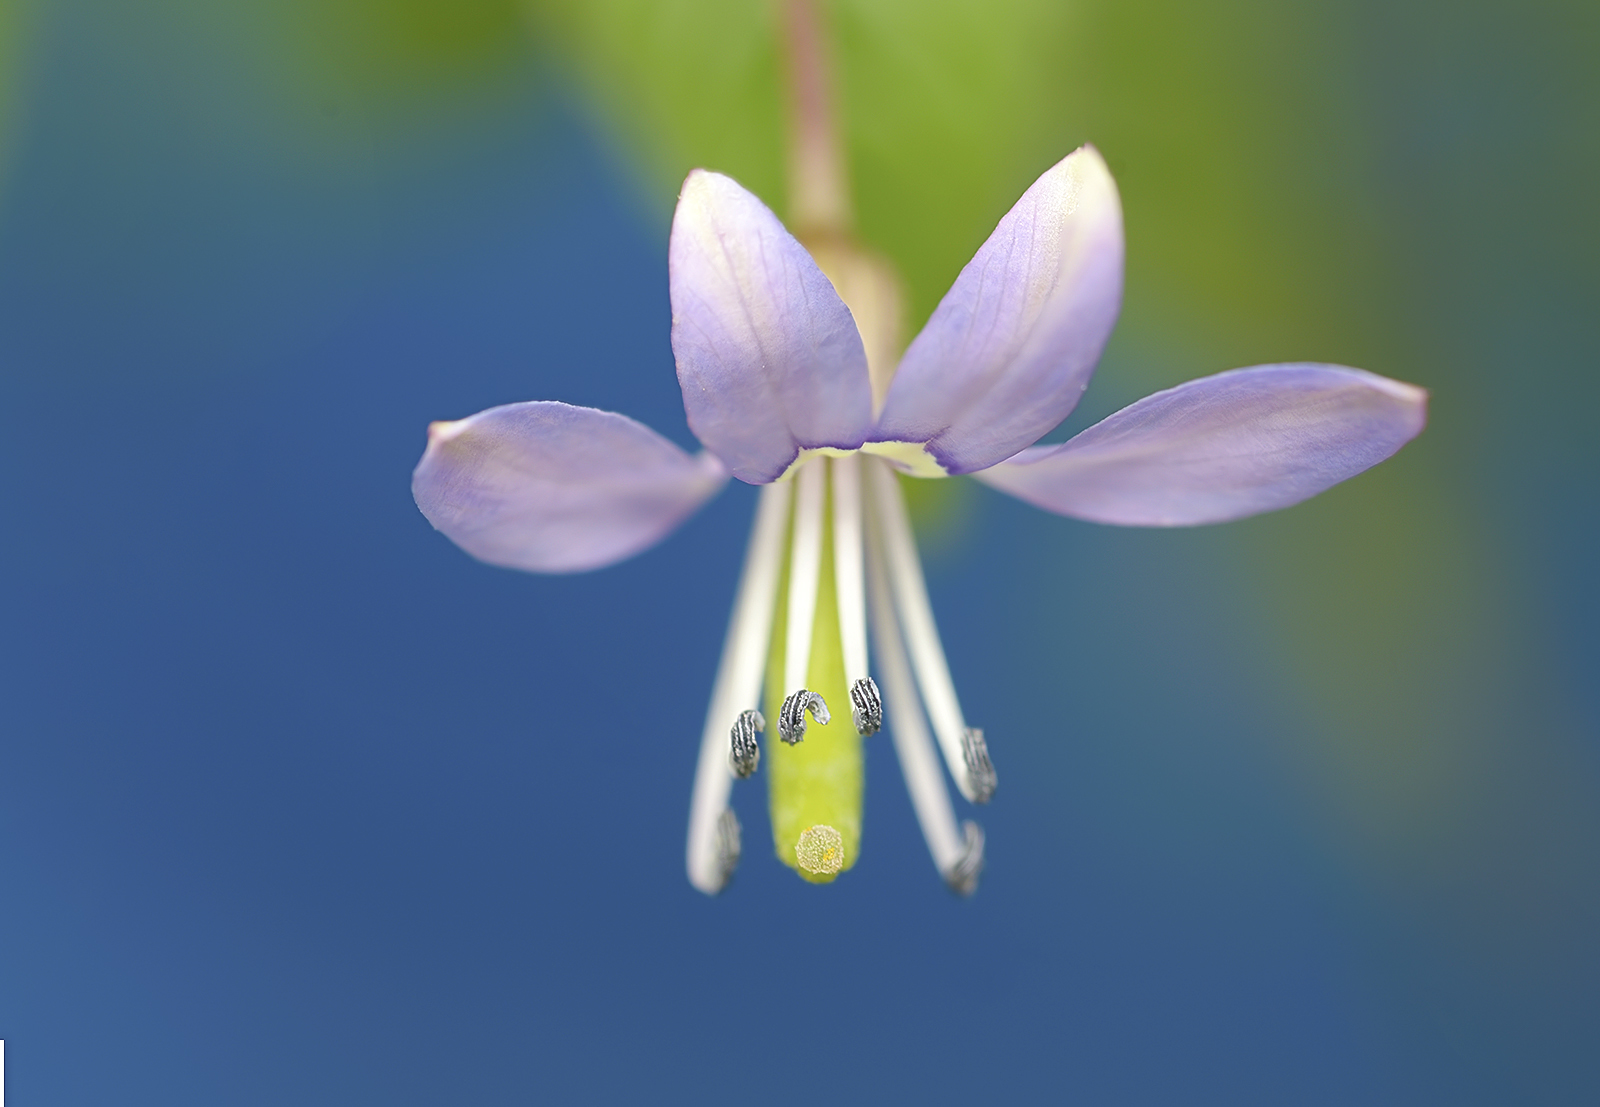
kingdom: Plantae
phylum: Tracheophyta
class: Magnoliopsida
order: Brassicales
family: Cleomaceae
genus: Sieruela
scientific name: Sieruela rutidosperma
